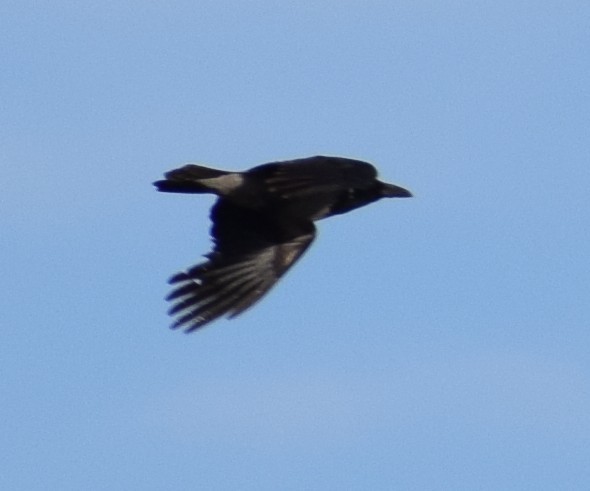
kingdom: Animalia
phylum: Chordata
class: Aves
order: Passeriformes
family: Corvidae
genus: Corvus
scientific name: Corvus cornix
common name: Hooded crow
